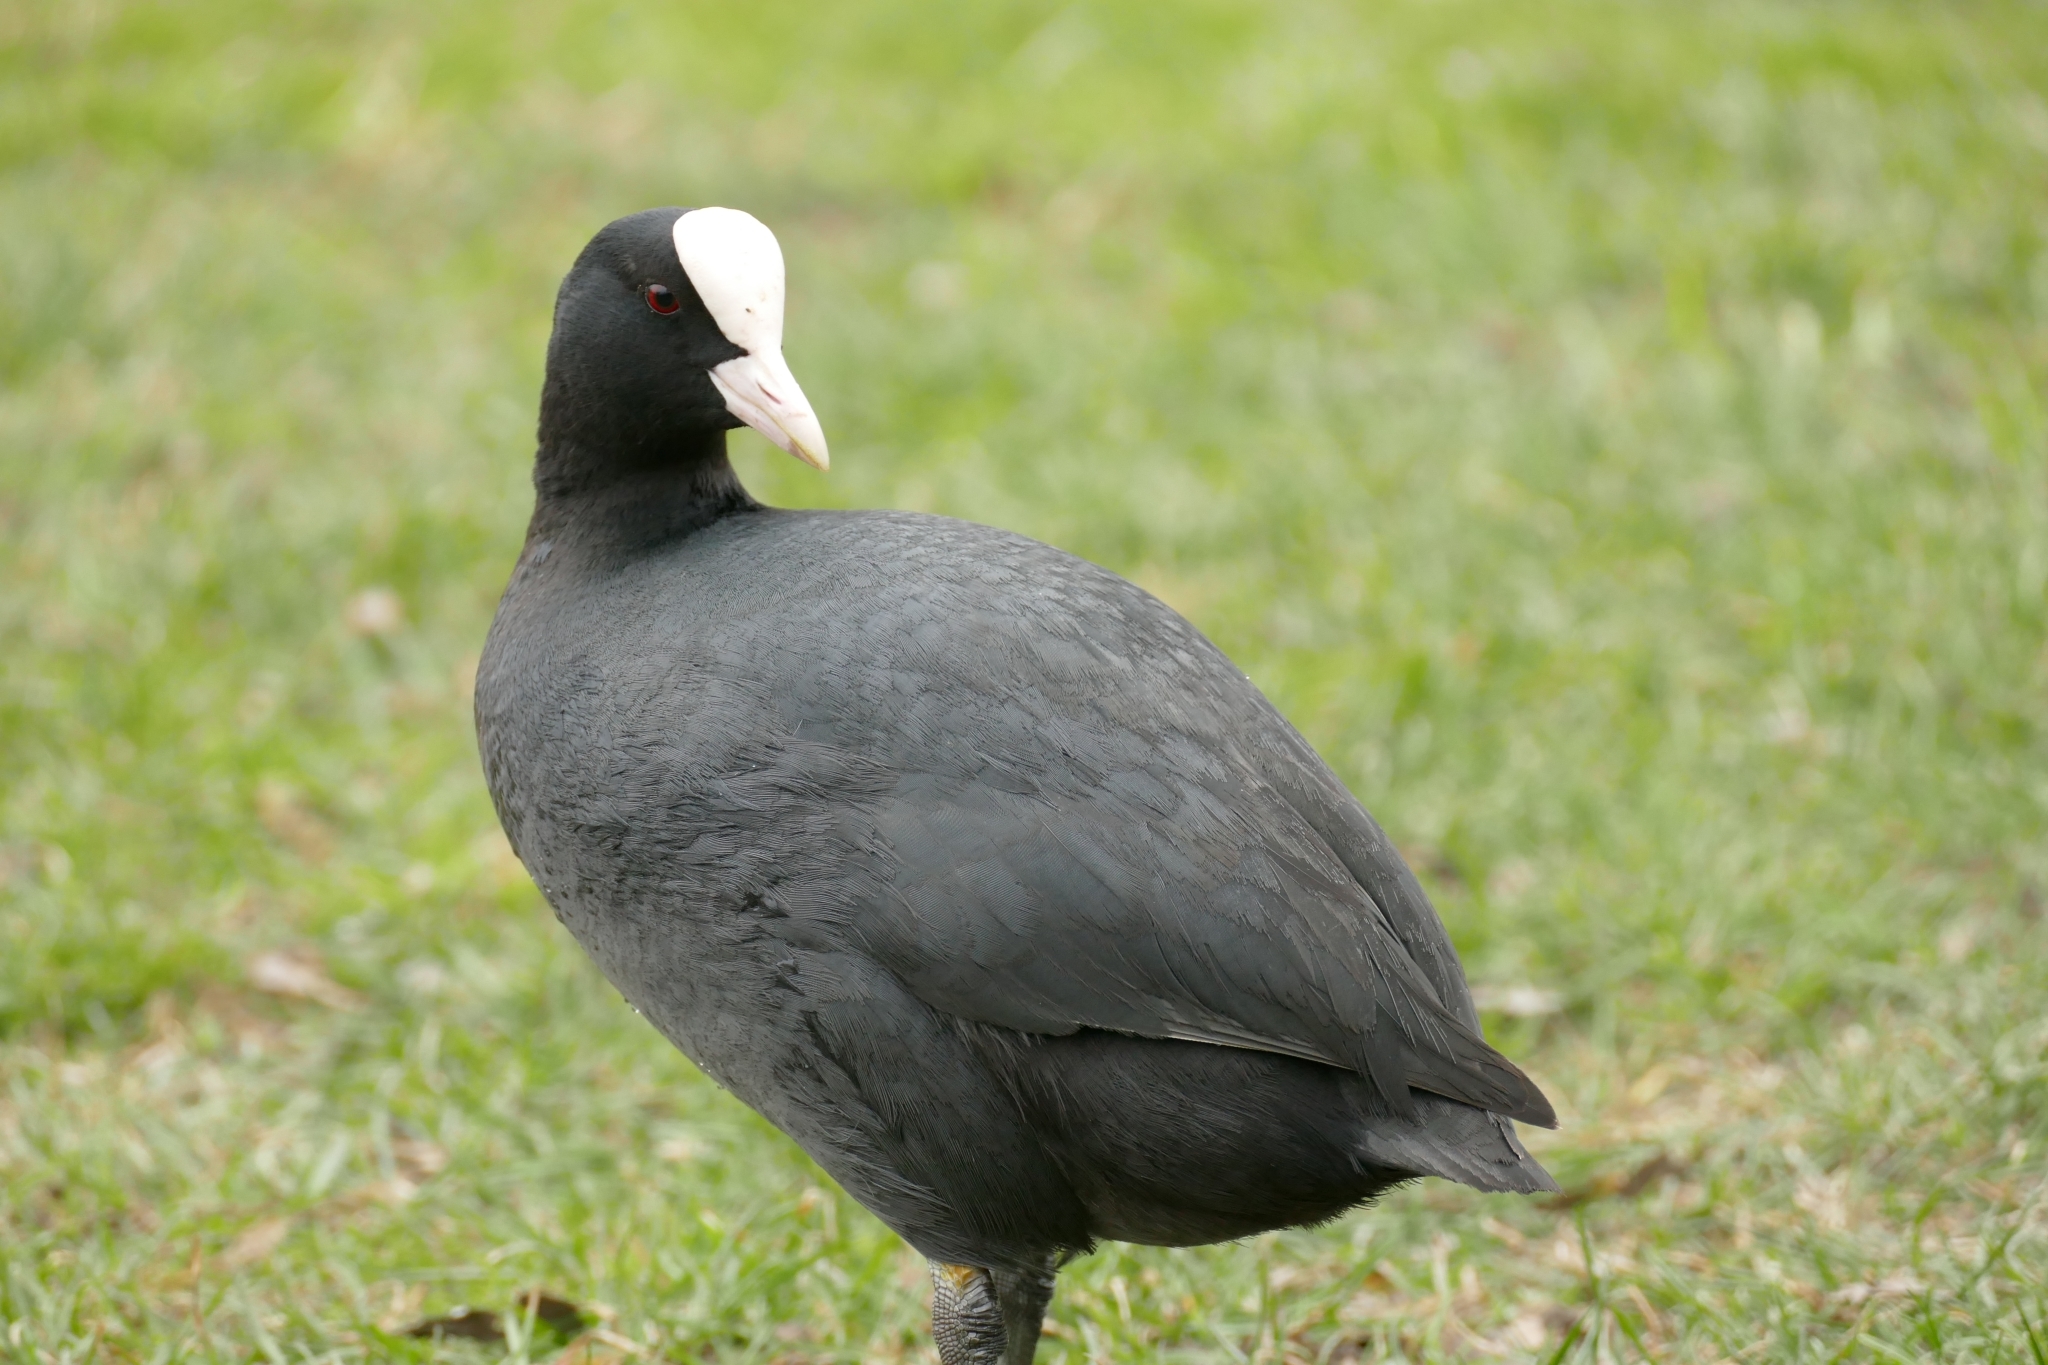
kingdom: Animalia
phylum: Chordata
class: Aves
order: Gruiformes
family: Rallidae
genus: Fulica
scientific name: Fulica atra
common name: Eurasian coot
